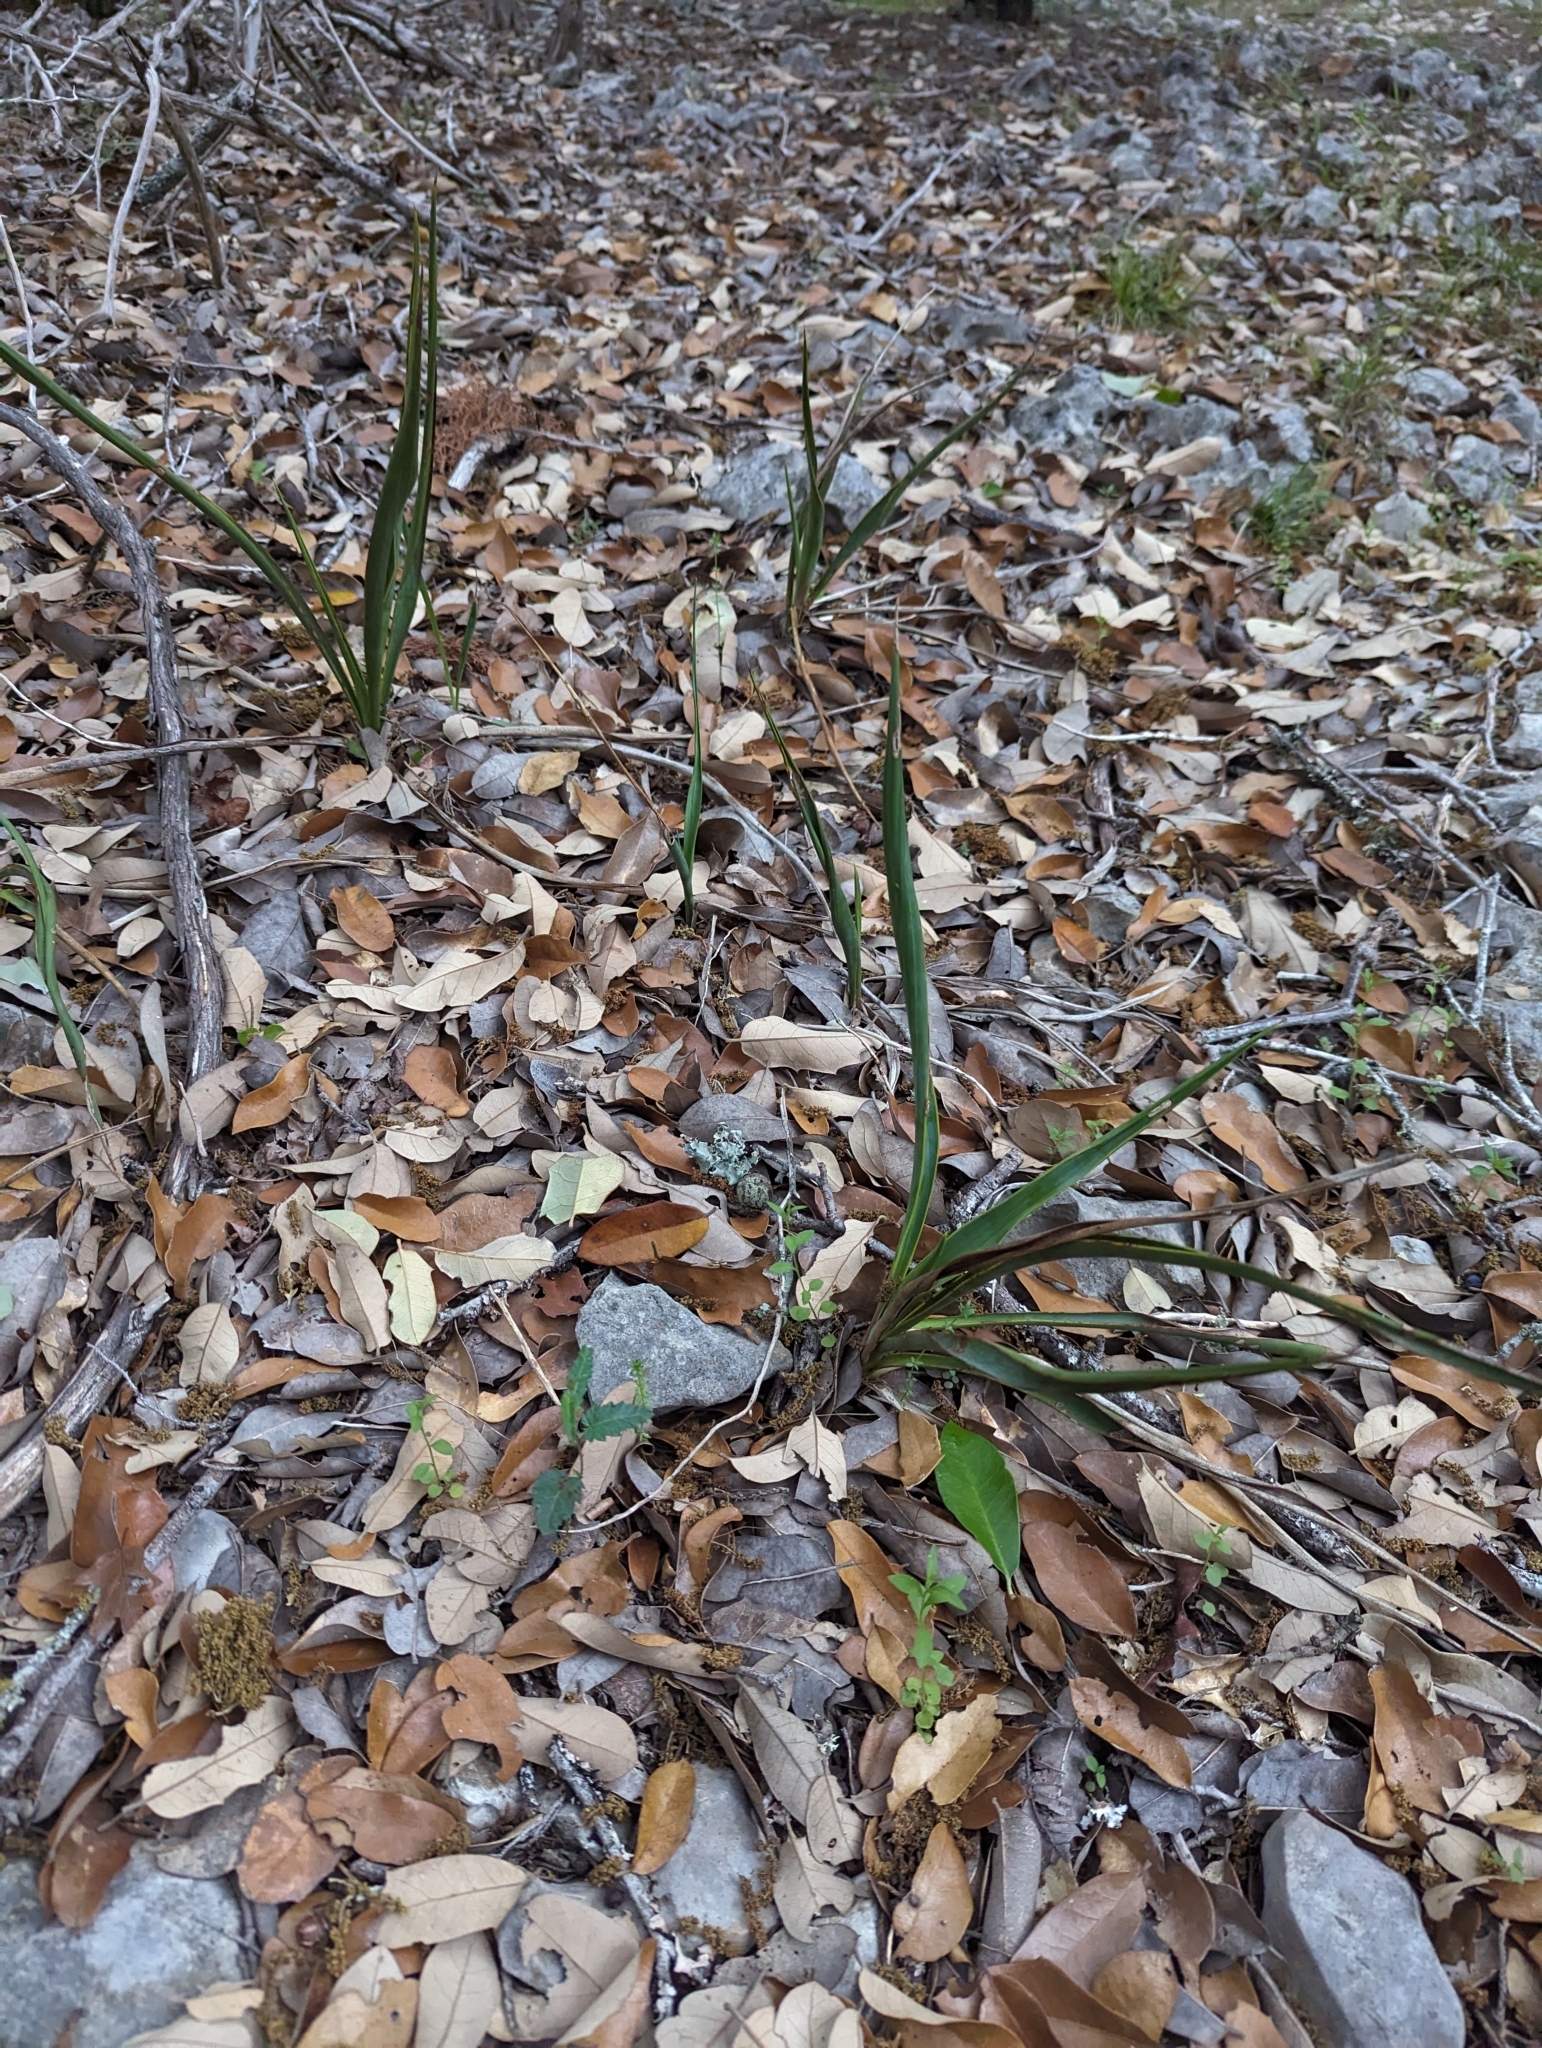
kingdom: Plantae
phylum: Tracheophyta
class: Liliopsida
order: Asparagales
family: Asparagaceae
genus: Yucca
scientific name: Yucca rupicola
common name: Twisted-leaf spanish-dagger
